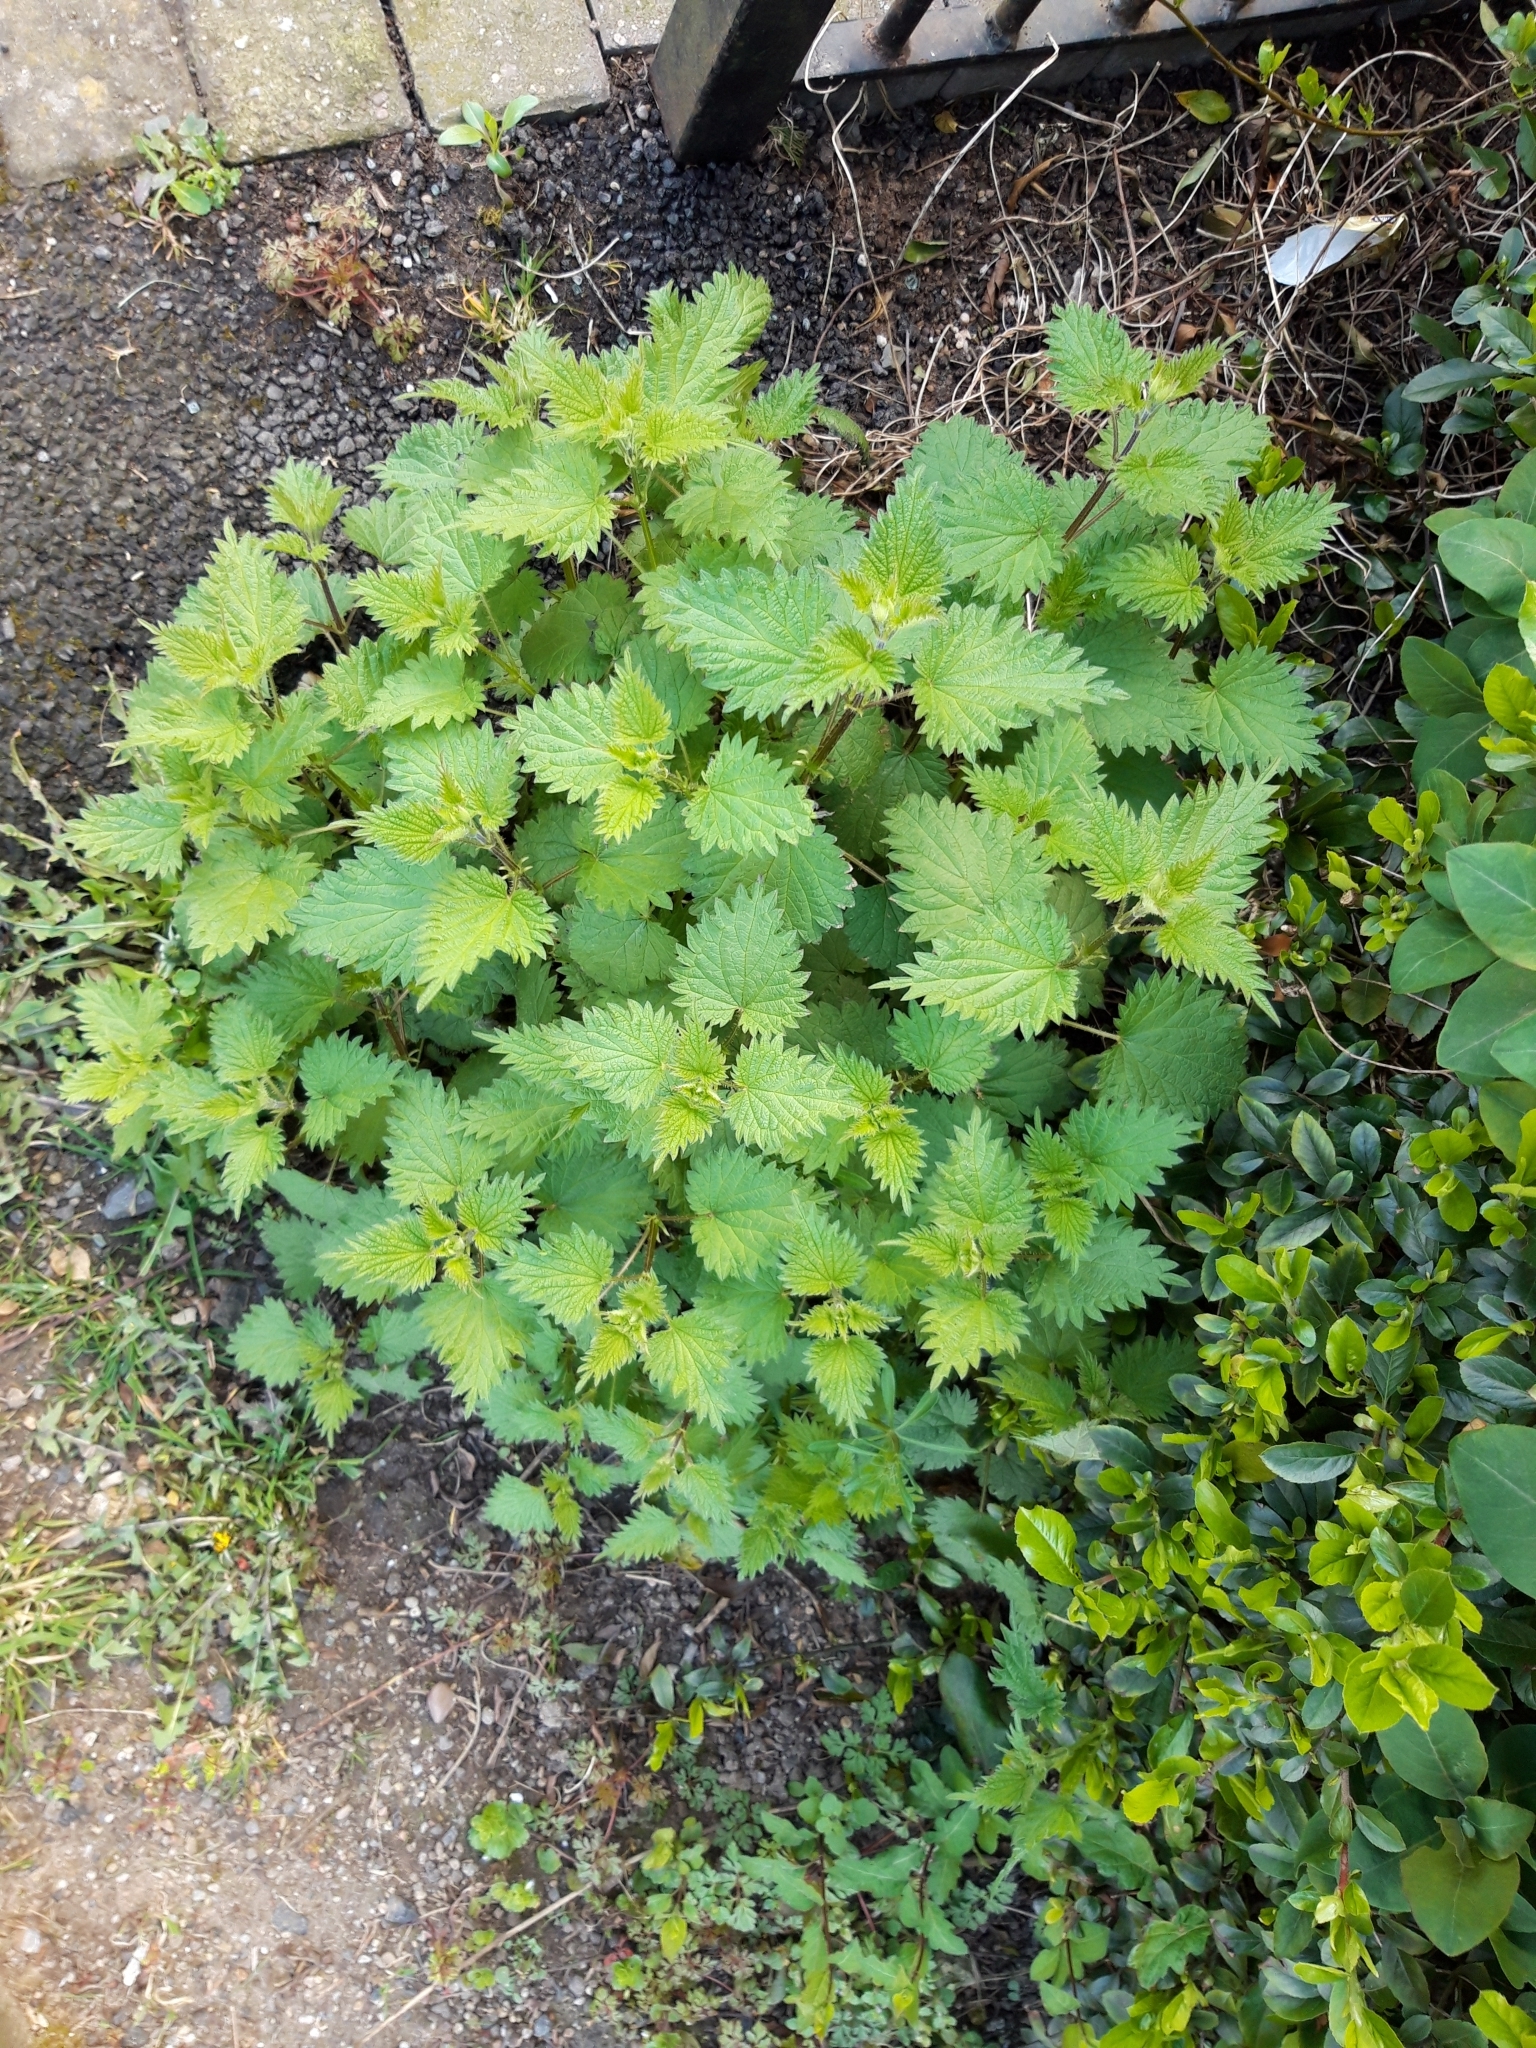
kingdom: Plantae
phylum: Tracheophyta
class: Magnoliopsida
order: Rosales
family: Urticaceae
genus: Urtica
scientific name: Urtica dioica
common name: Common nettle
